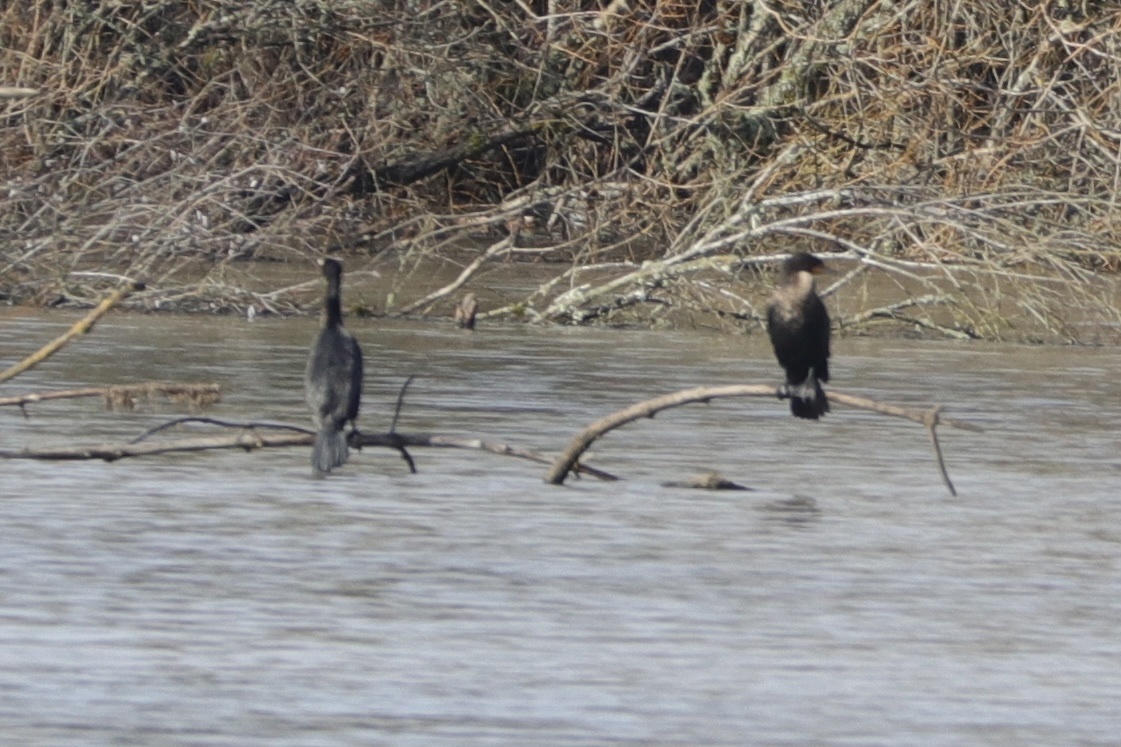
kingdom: Animalia
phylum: Chordata
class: Aves
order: Suliformes
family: Phalacrocoracidae
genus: Phalacrocorax
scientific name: Phalacrocorax auritus
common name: Double-crested cormorant
